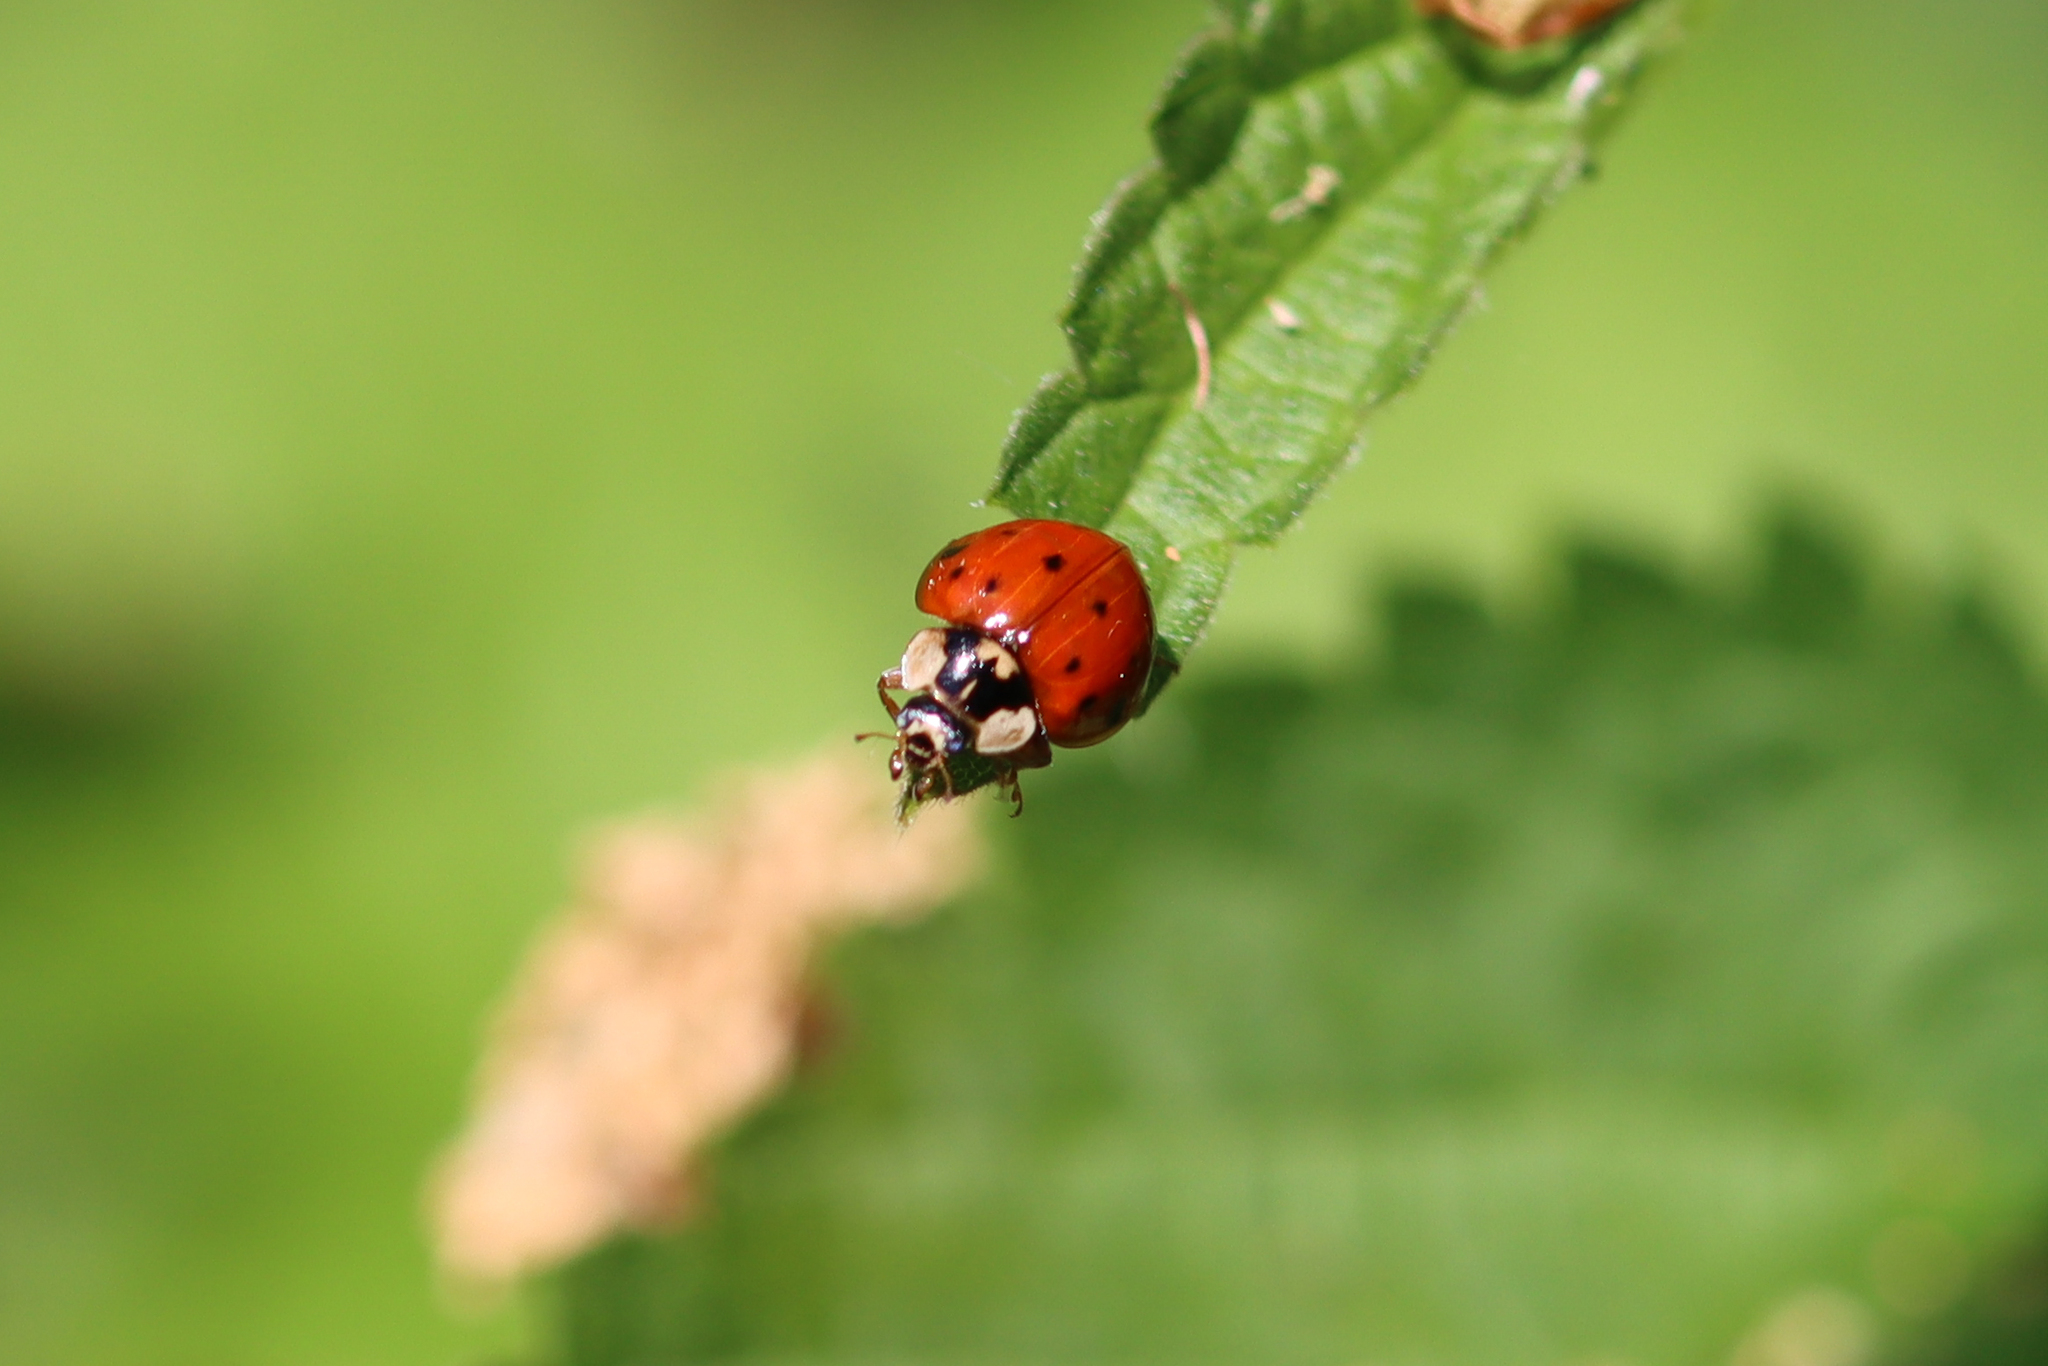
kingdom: Animalia
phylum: Arthropoda
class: Insecta
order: Coleoptera
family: Coccinellidae
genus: Harmonia
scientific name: Harmonia axyridis
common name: Harlequin ladybird
